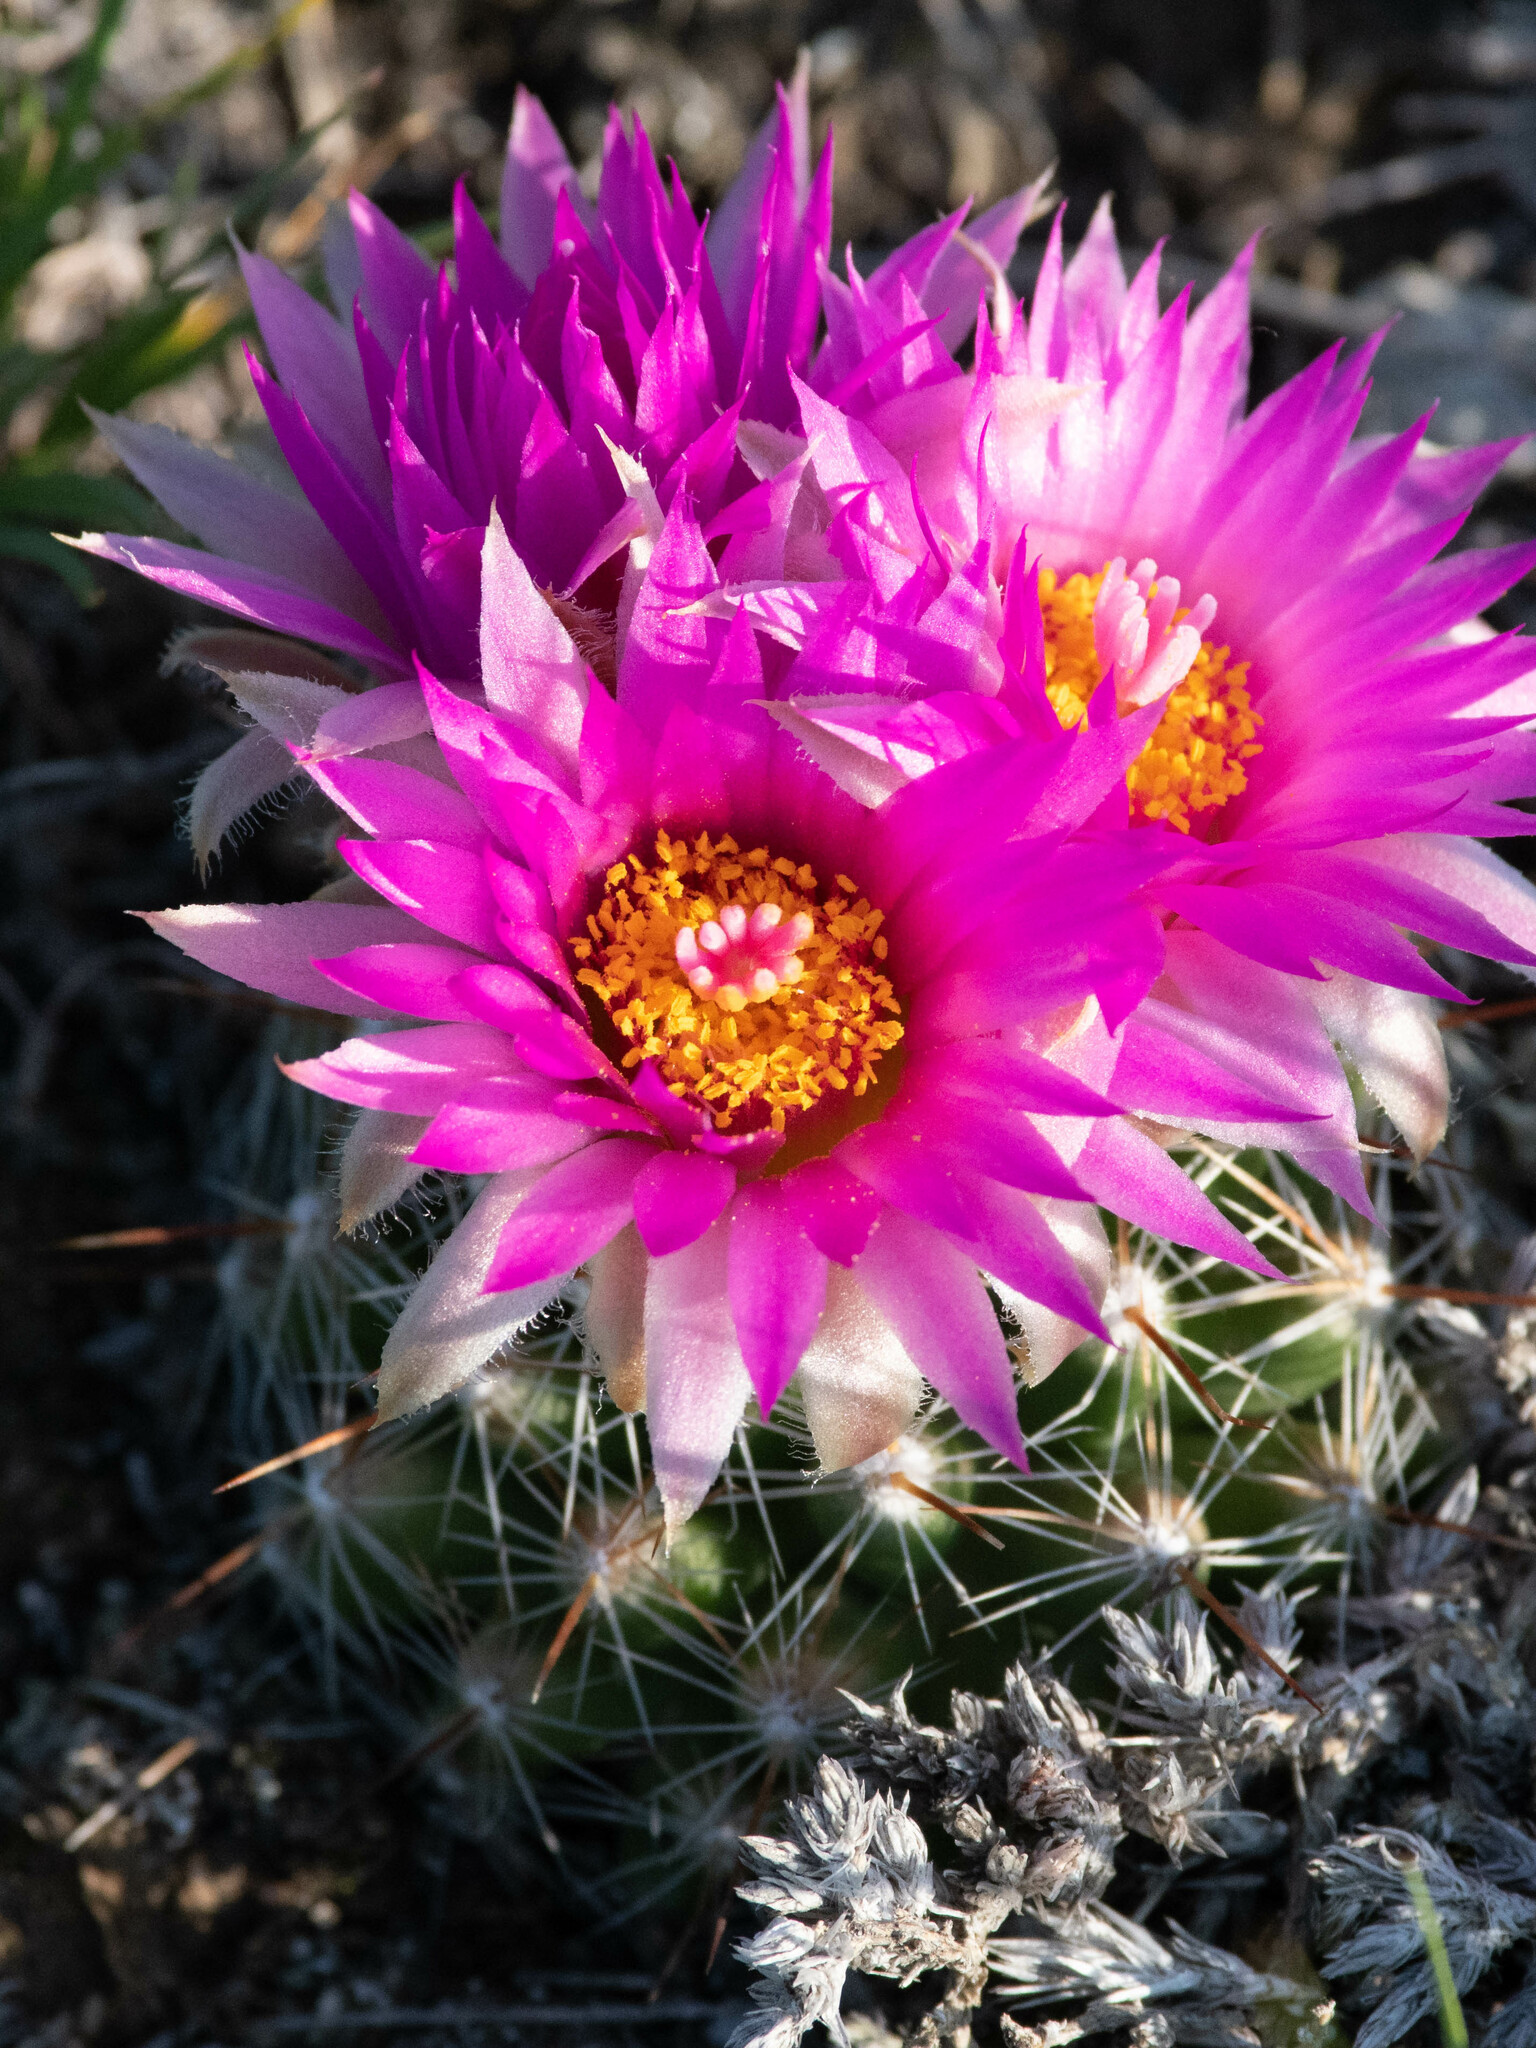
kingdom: Plantae
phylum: Tracheophyta
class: Magnoliopsida
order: Caryophyllales
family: Cactaceae
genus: Pelecyphora
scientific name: Pelecyphora vivipara
